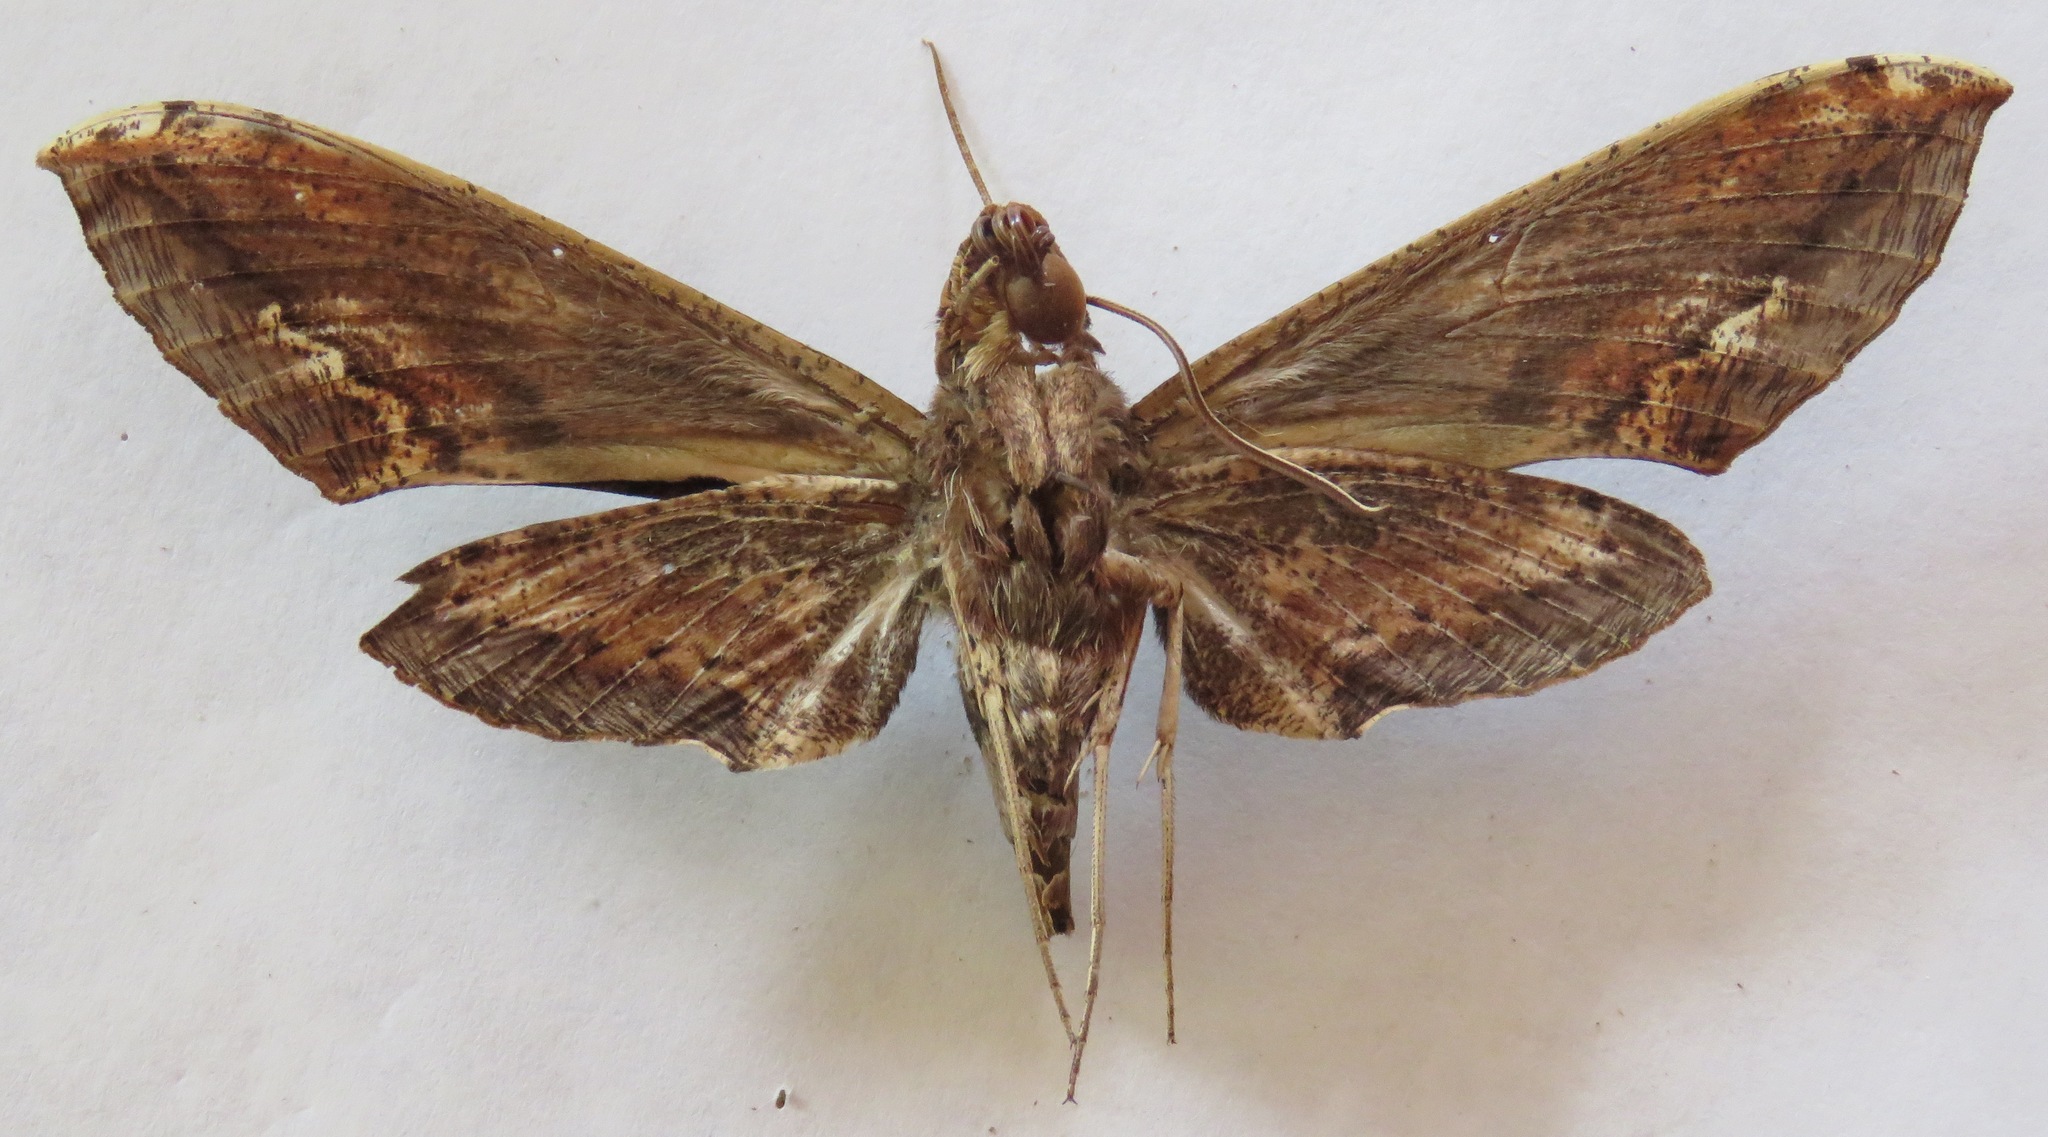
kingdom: Animalia
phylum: Arthropoda
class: Insecta
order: Lepidoptera
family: Sphingidae
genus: Xylophanes
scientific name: Xylophanes ceratomioides
